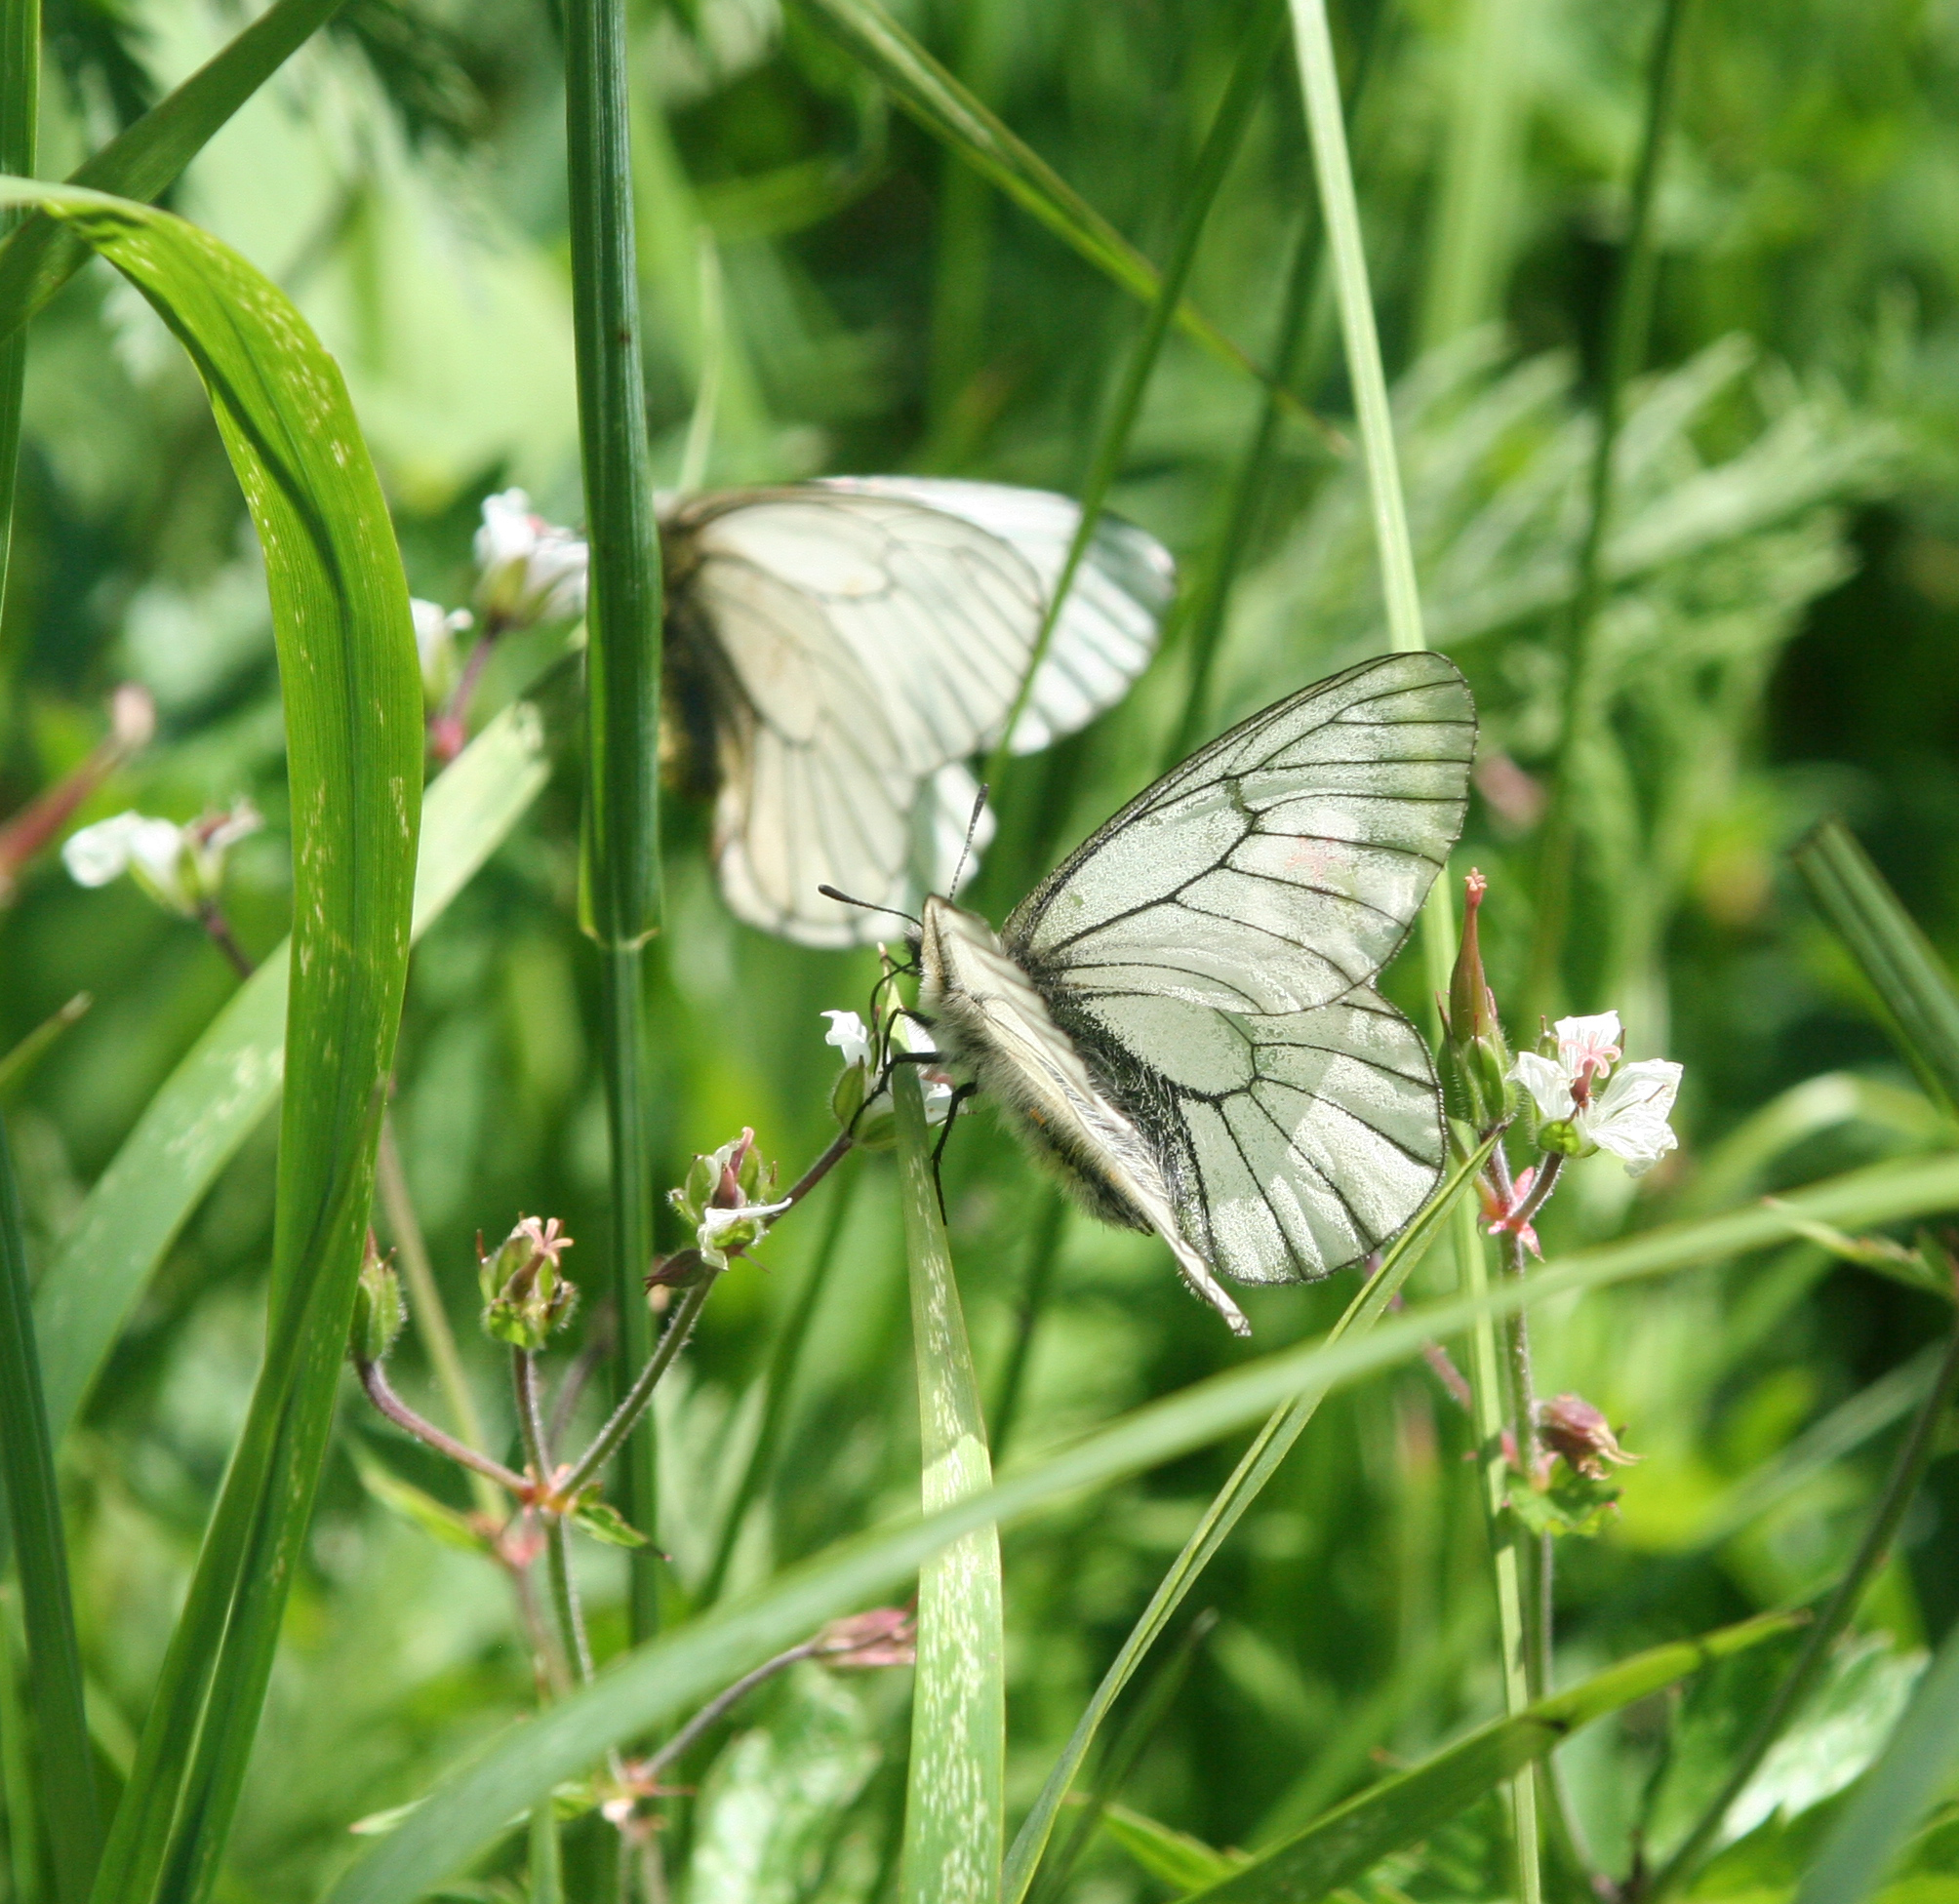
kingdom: Animalia
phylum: Arthropoda
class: Insecta
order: Lepidoptera
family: Papilionidae
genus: Parnassius
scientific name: Parnassius stubbendorfii
